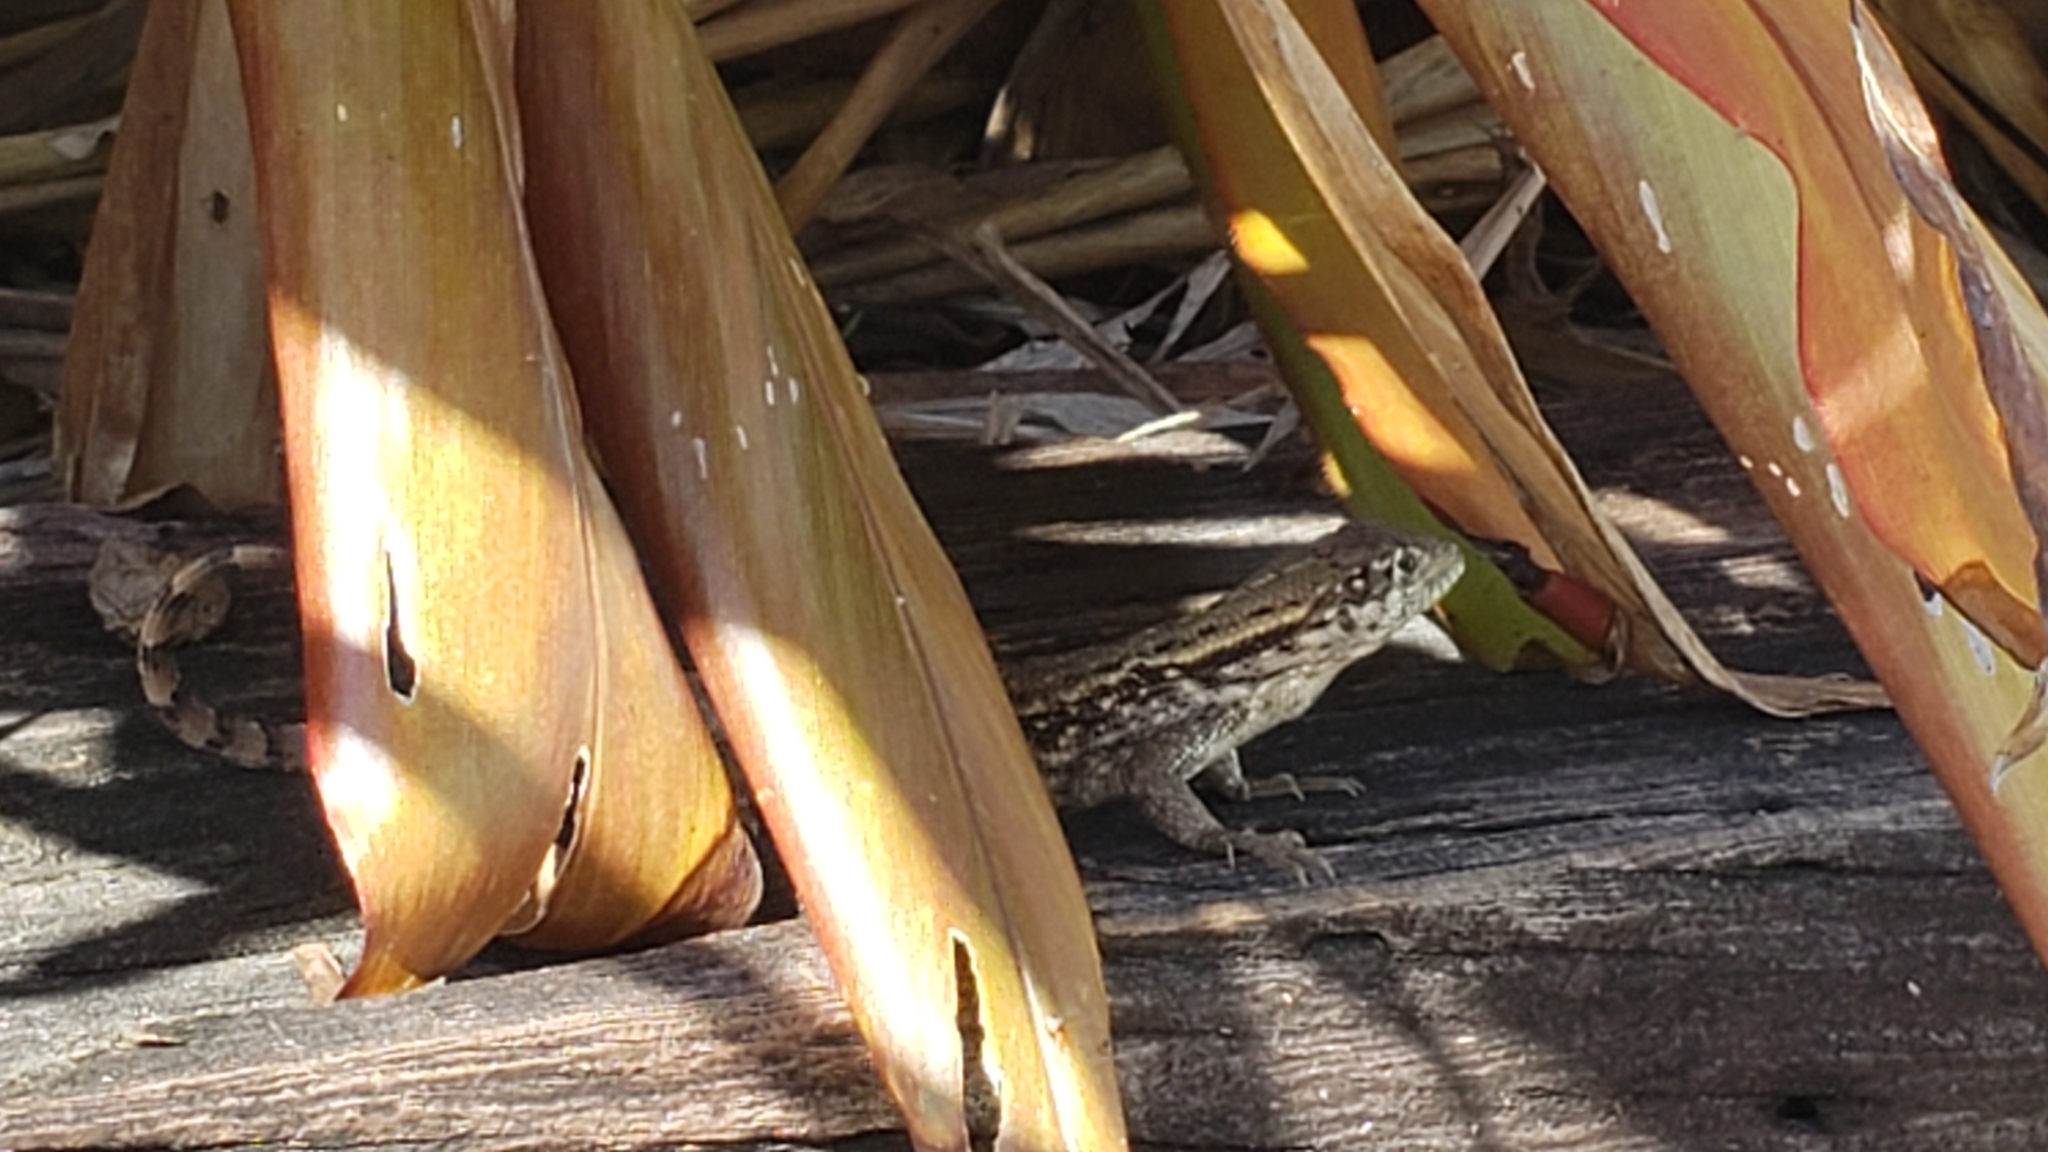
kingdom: Animalia
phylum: Chordata
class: Squamata
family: Leiocephalidae
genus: Leiocephalus
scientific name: Leiocephalus carinatus
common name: Northern curly-tailed lizard
